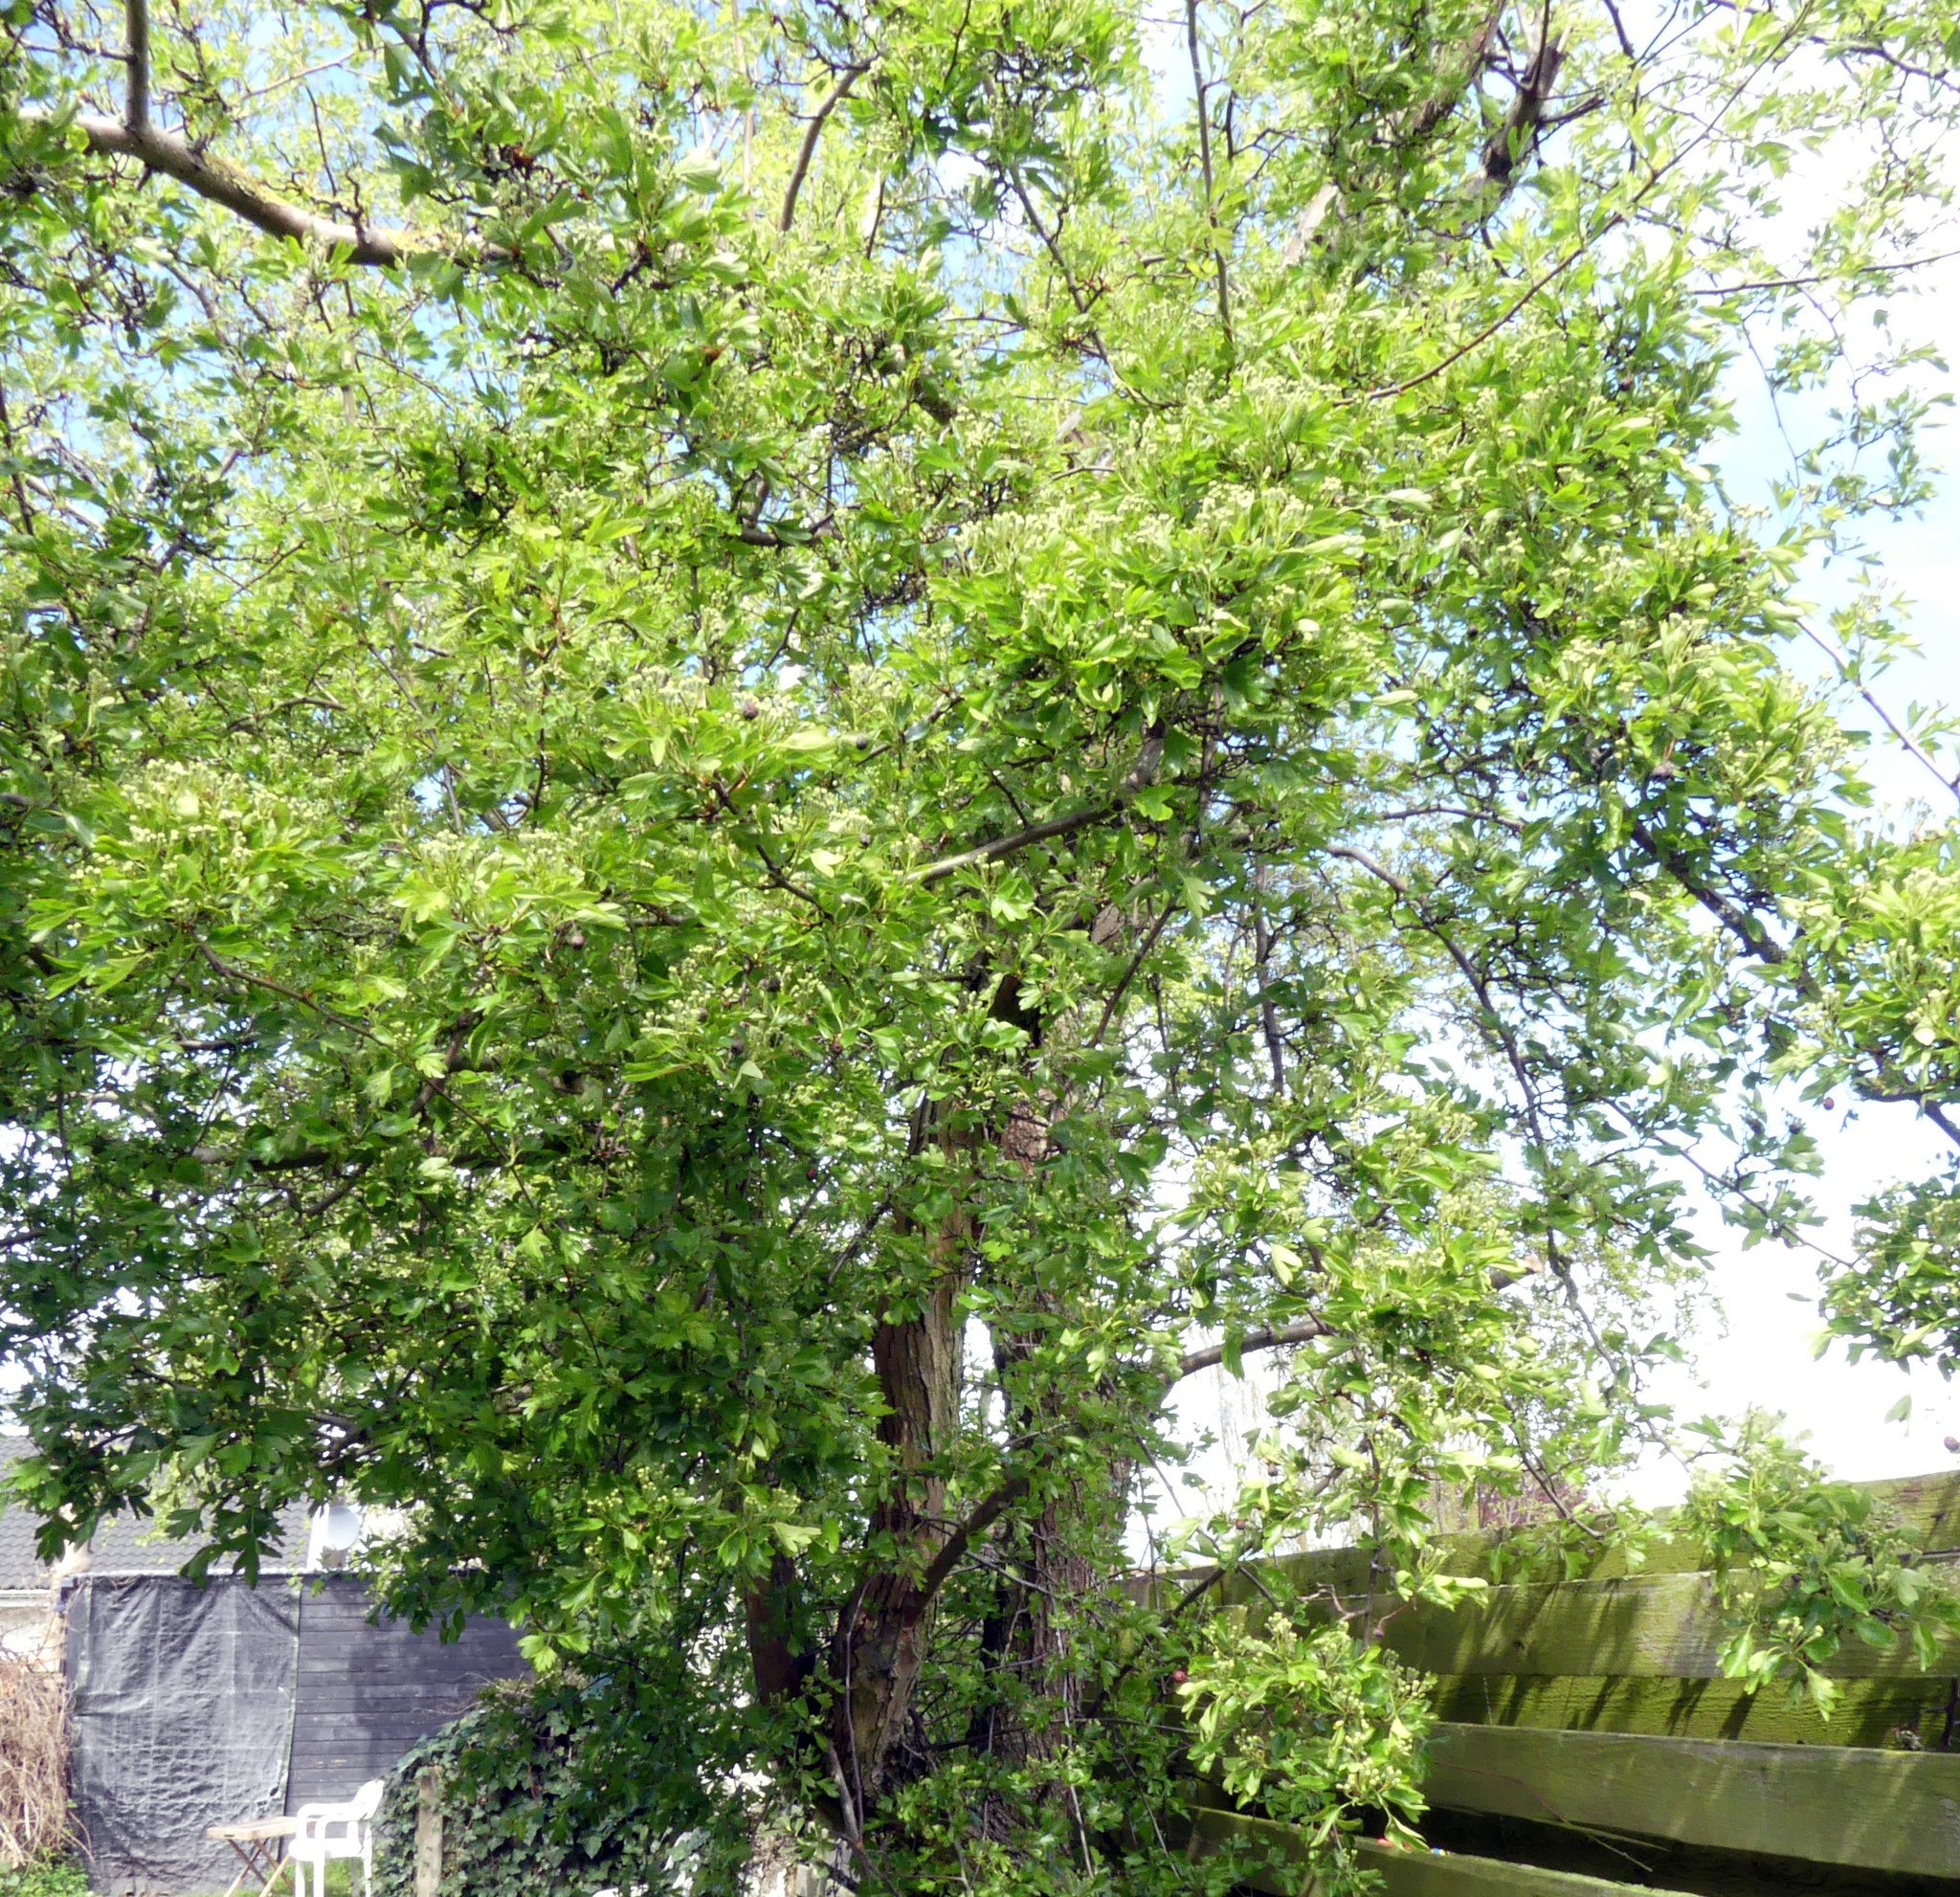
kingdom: Plantae
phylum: Tracheophyta
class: Magnoliopsida
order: Rosales
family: Rosaceae
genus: Crataegus
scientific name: Crataegus monogyna
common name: Hawthorn
